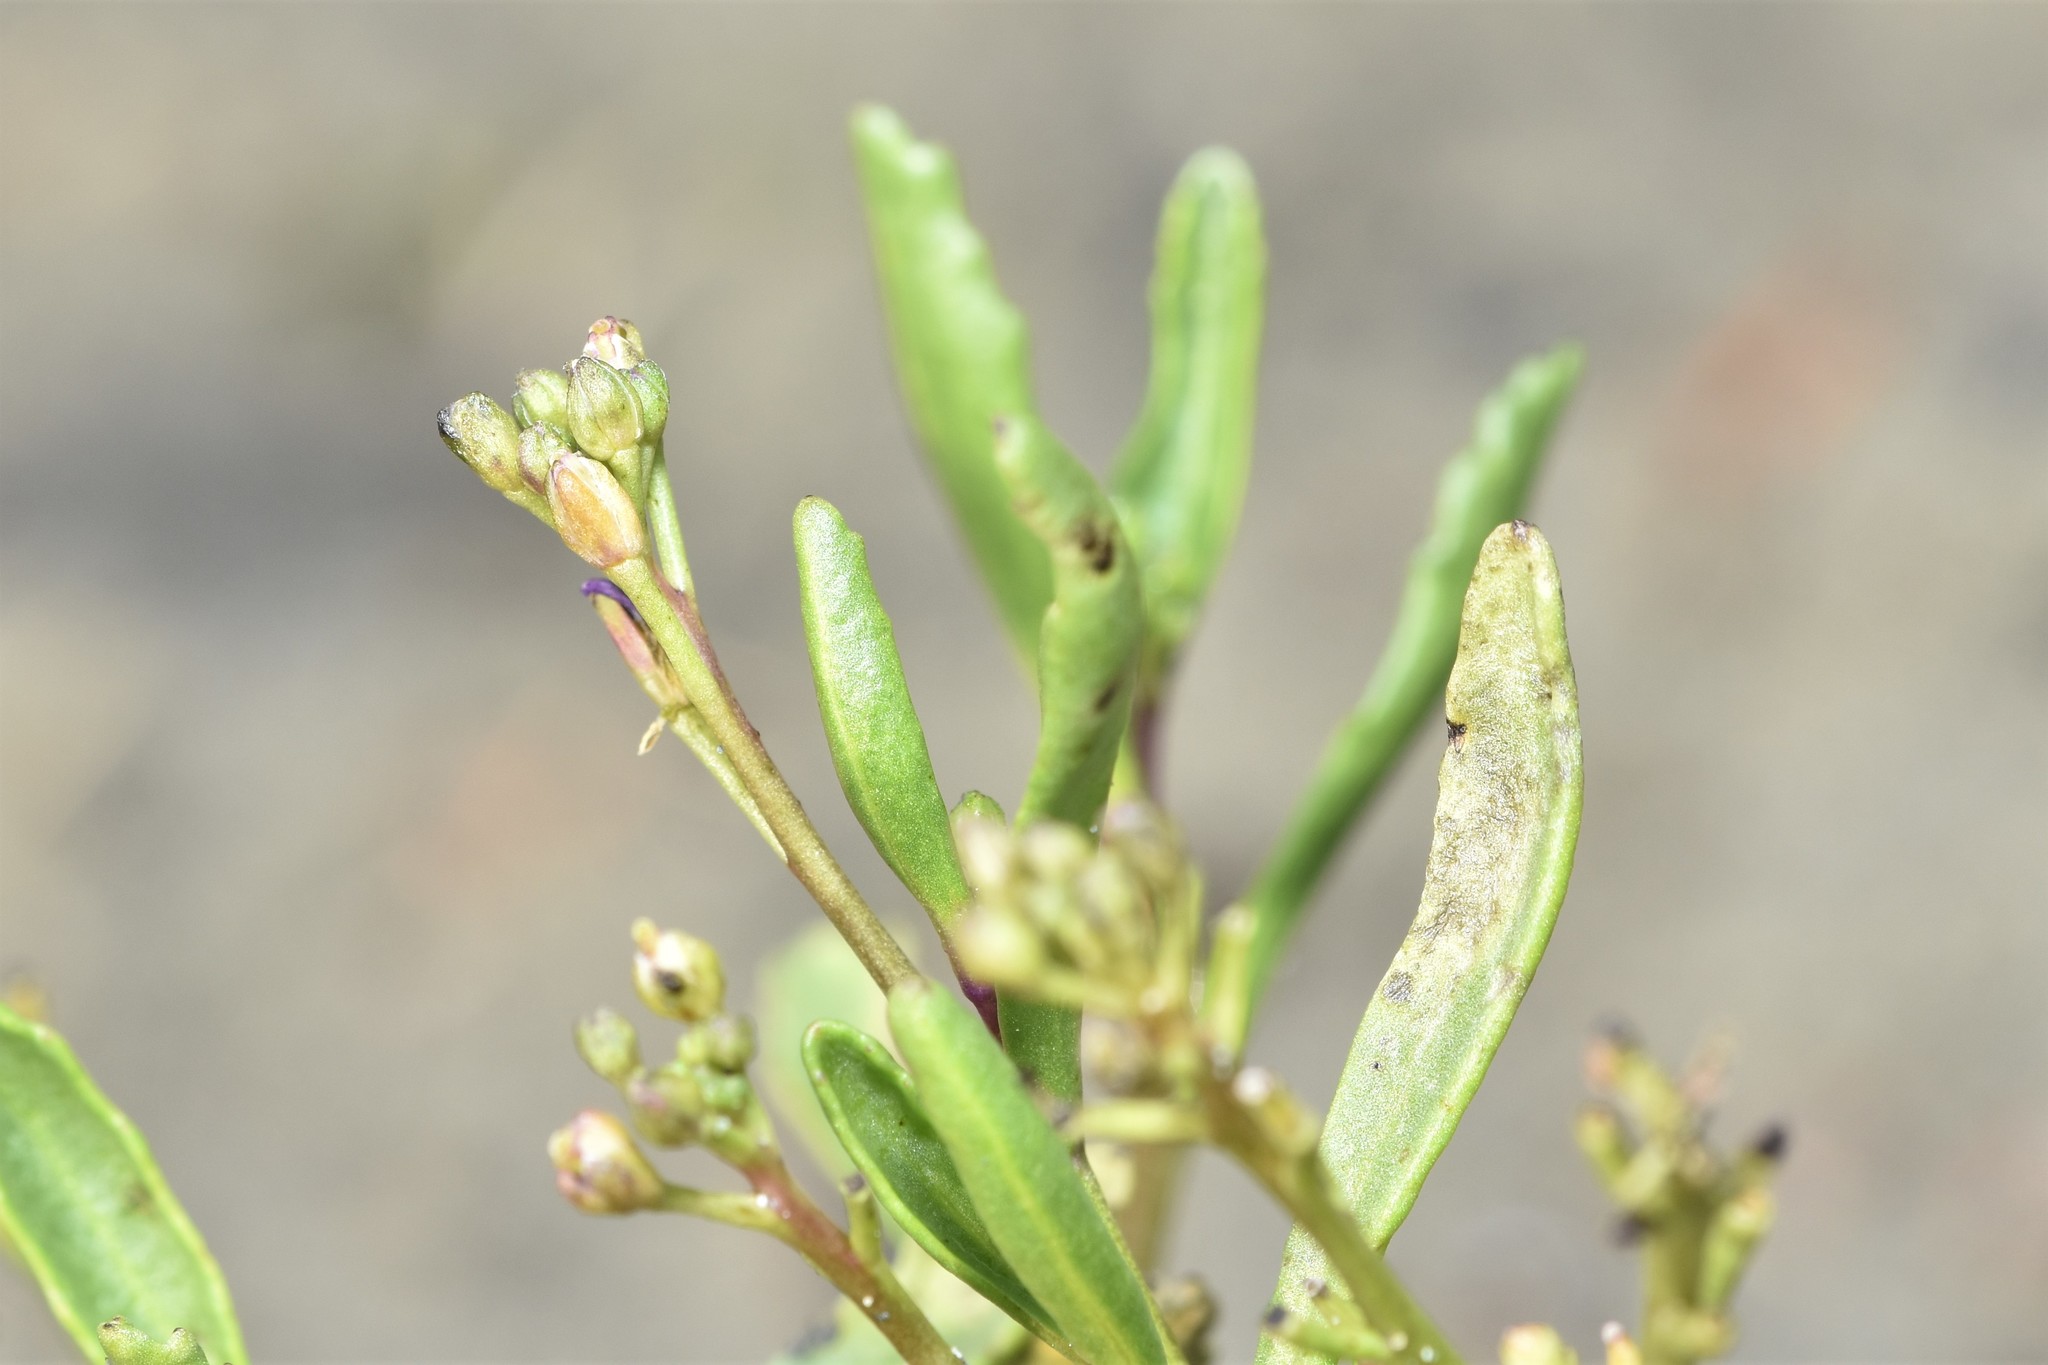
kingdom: Plantae
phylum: Tracheophyta
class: Magnoliopsida
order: Brassicales
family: Brassicaceae
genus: Cakile
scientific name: Cakile edentula
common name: American sea rocket
